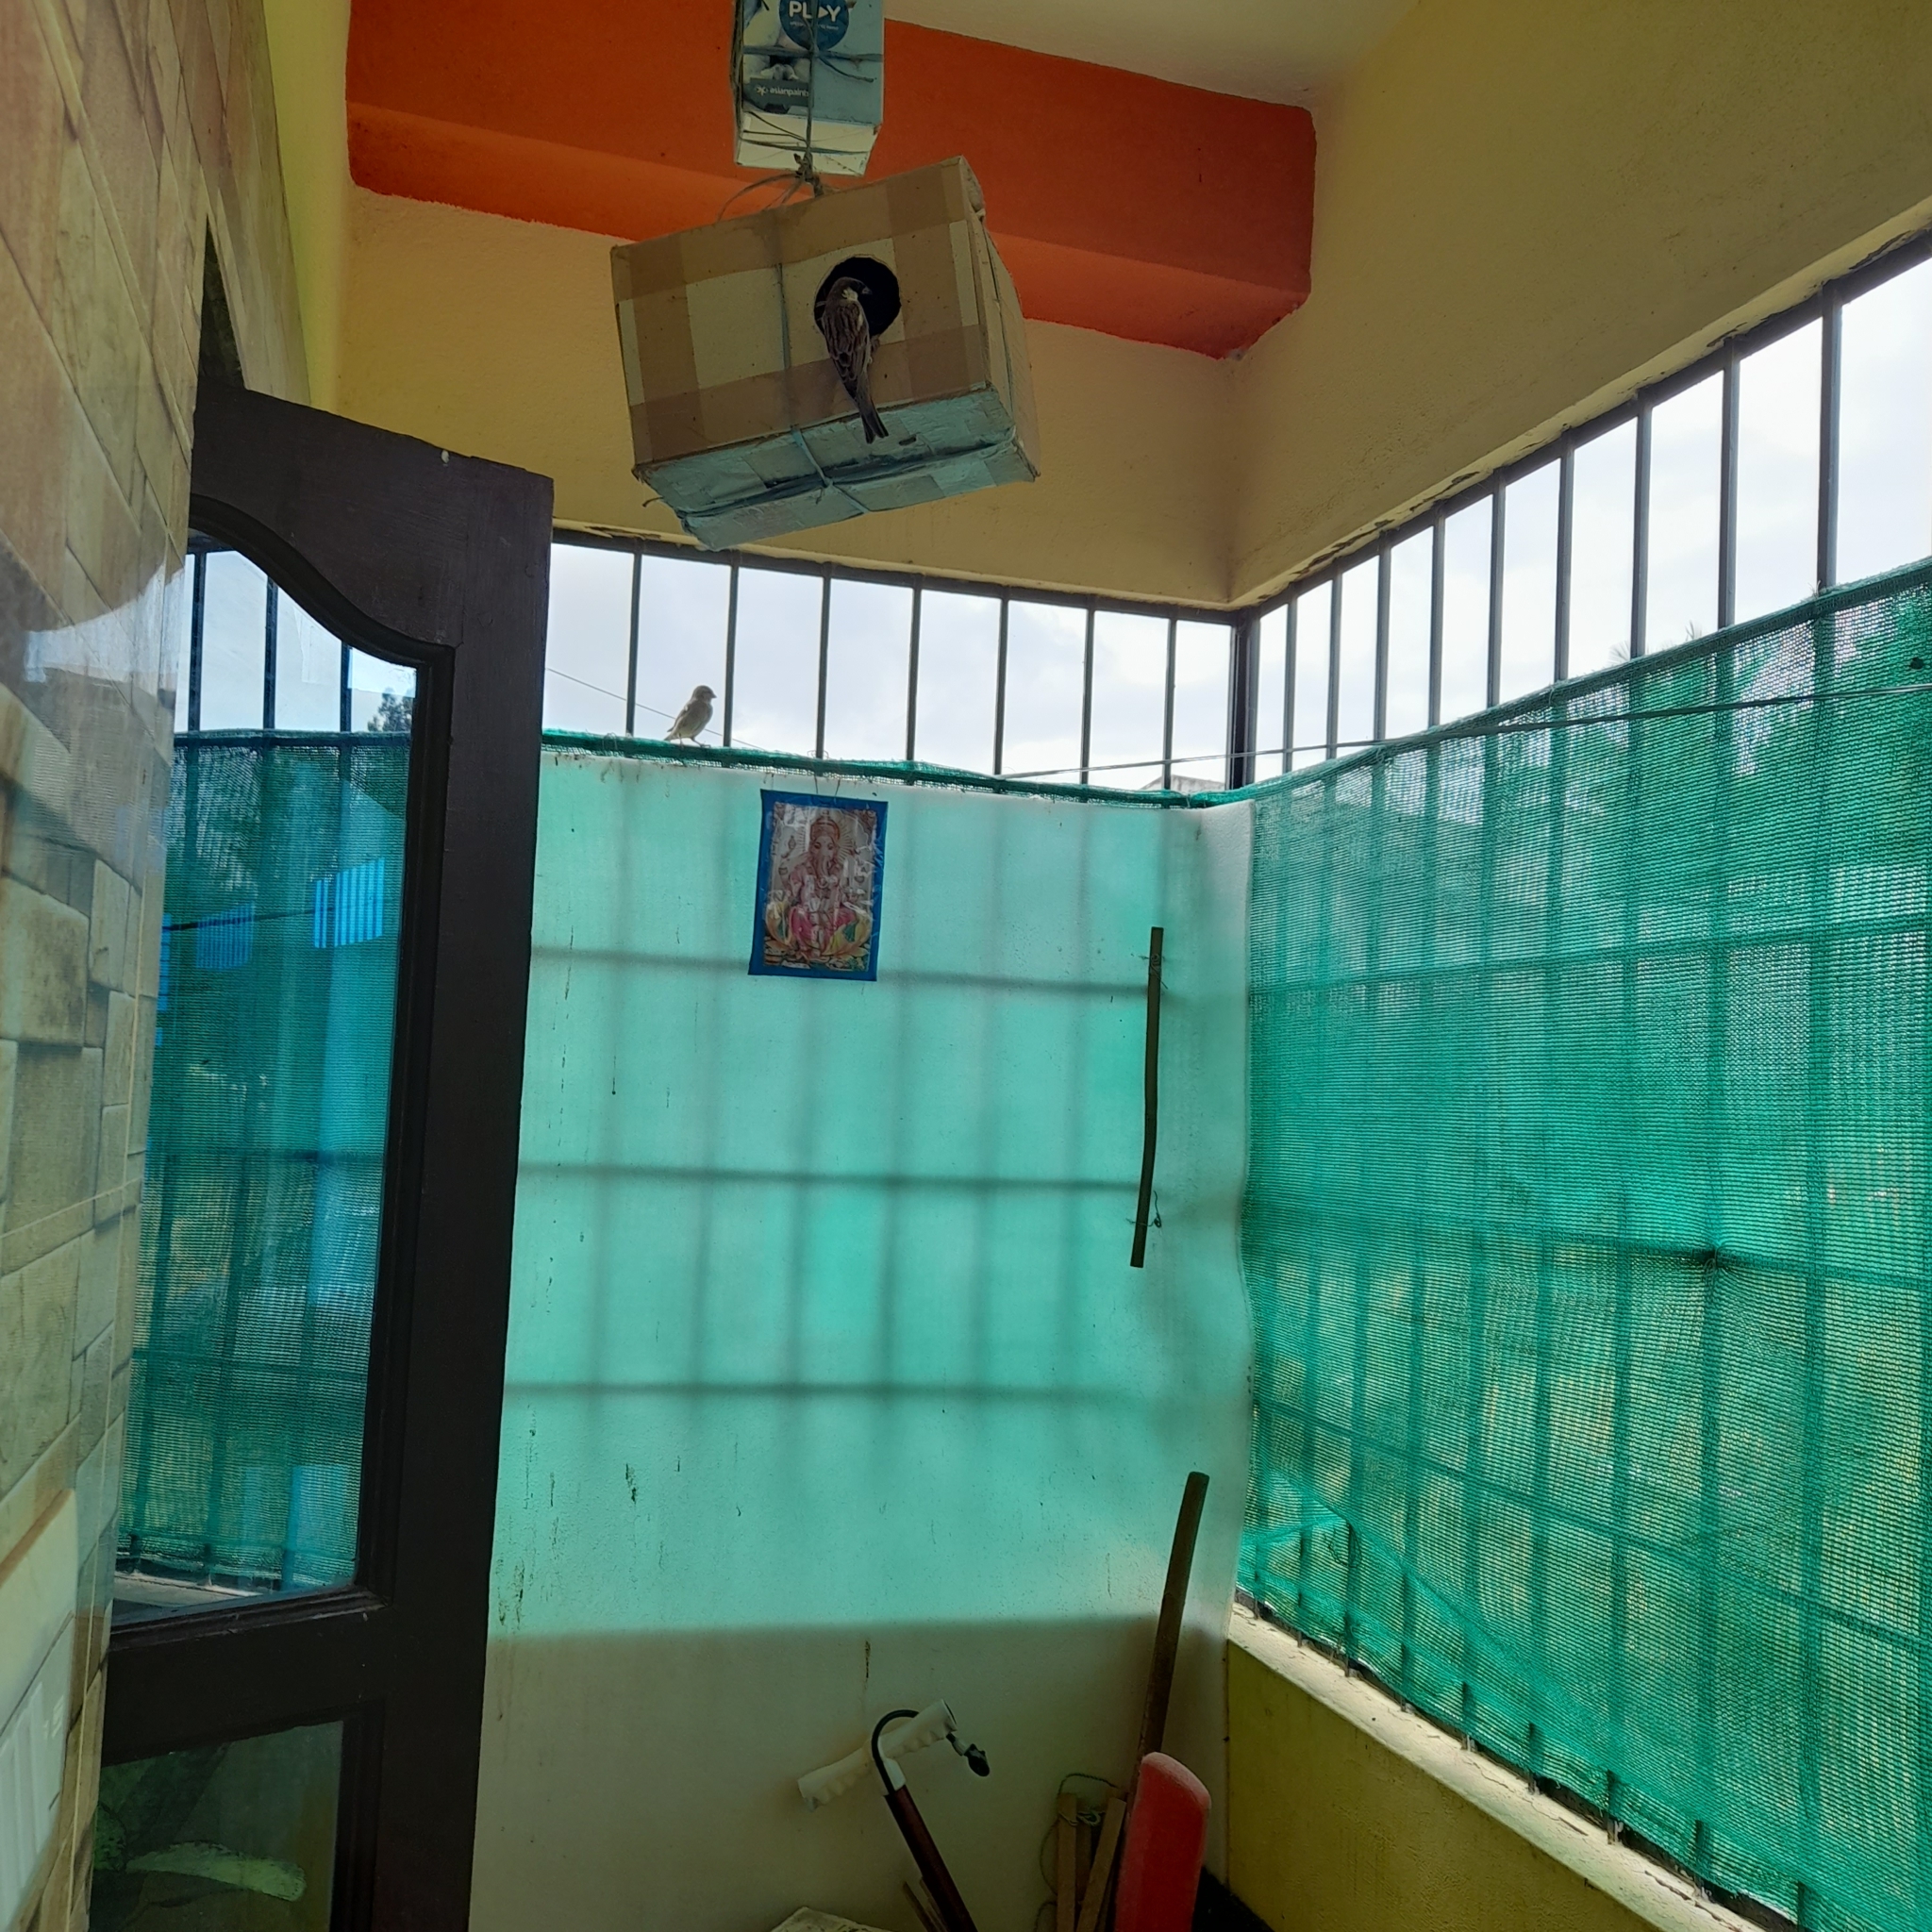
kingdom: Animalia
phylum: Chordata
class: Aves
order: Passeriformes
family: Passeridae
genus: Passer
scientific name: Passer domesticus
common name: House sparrow
